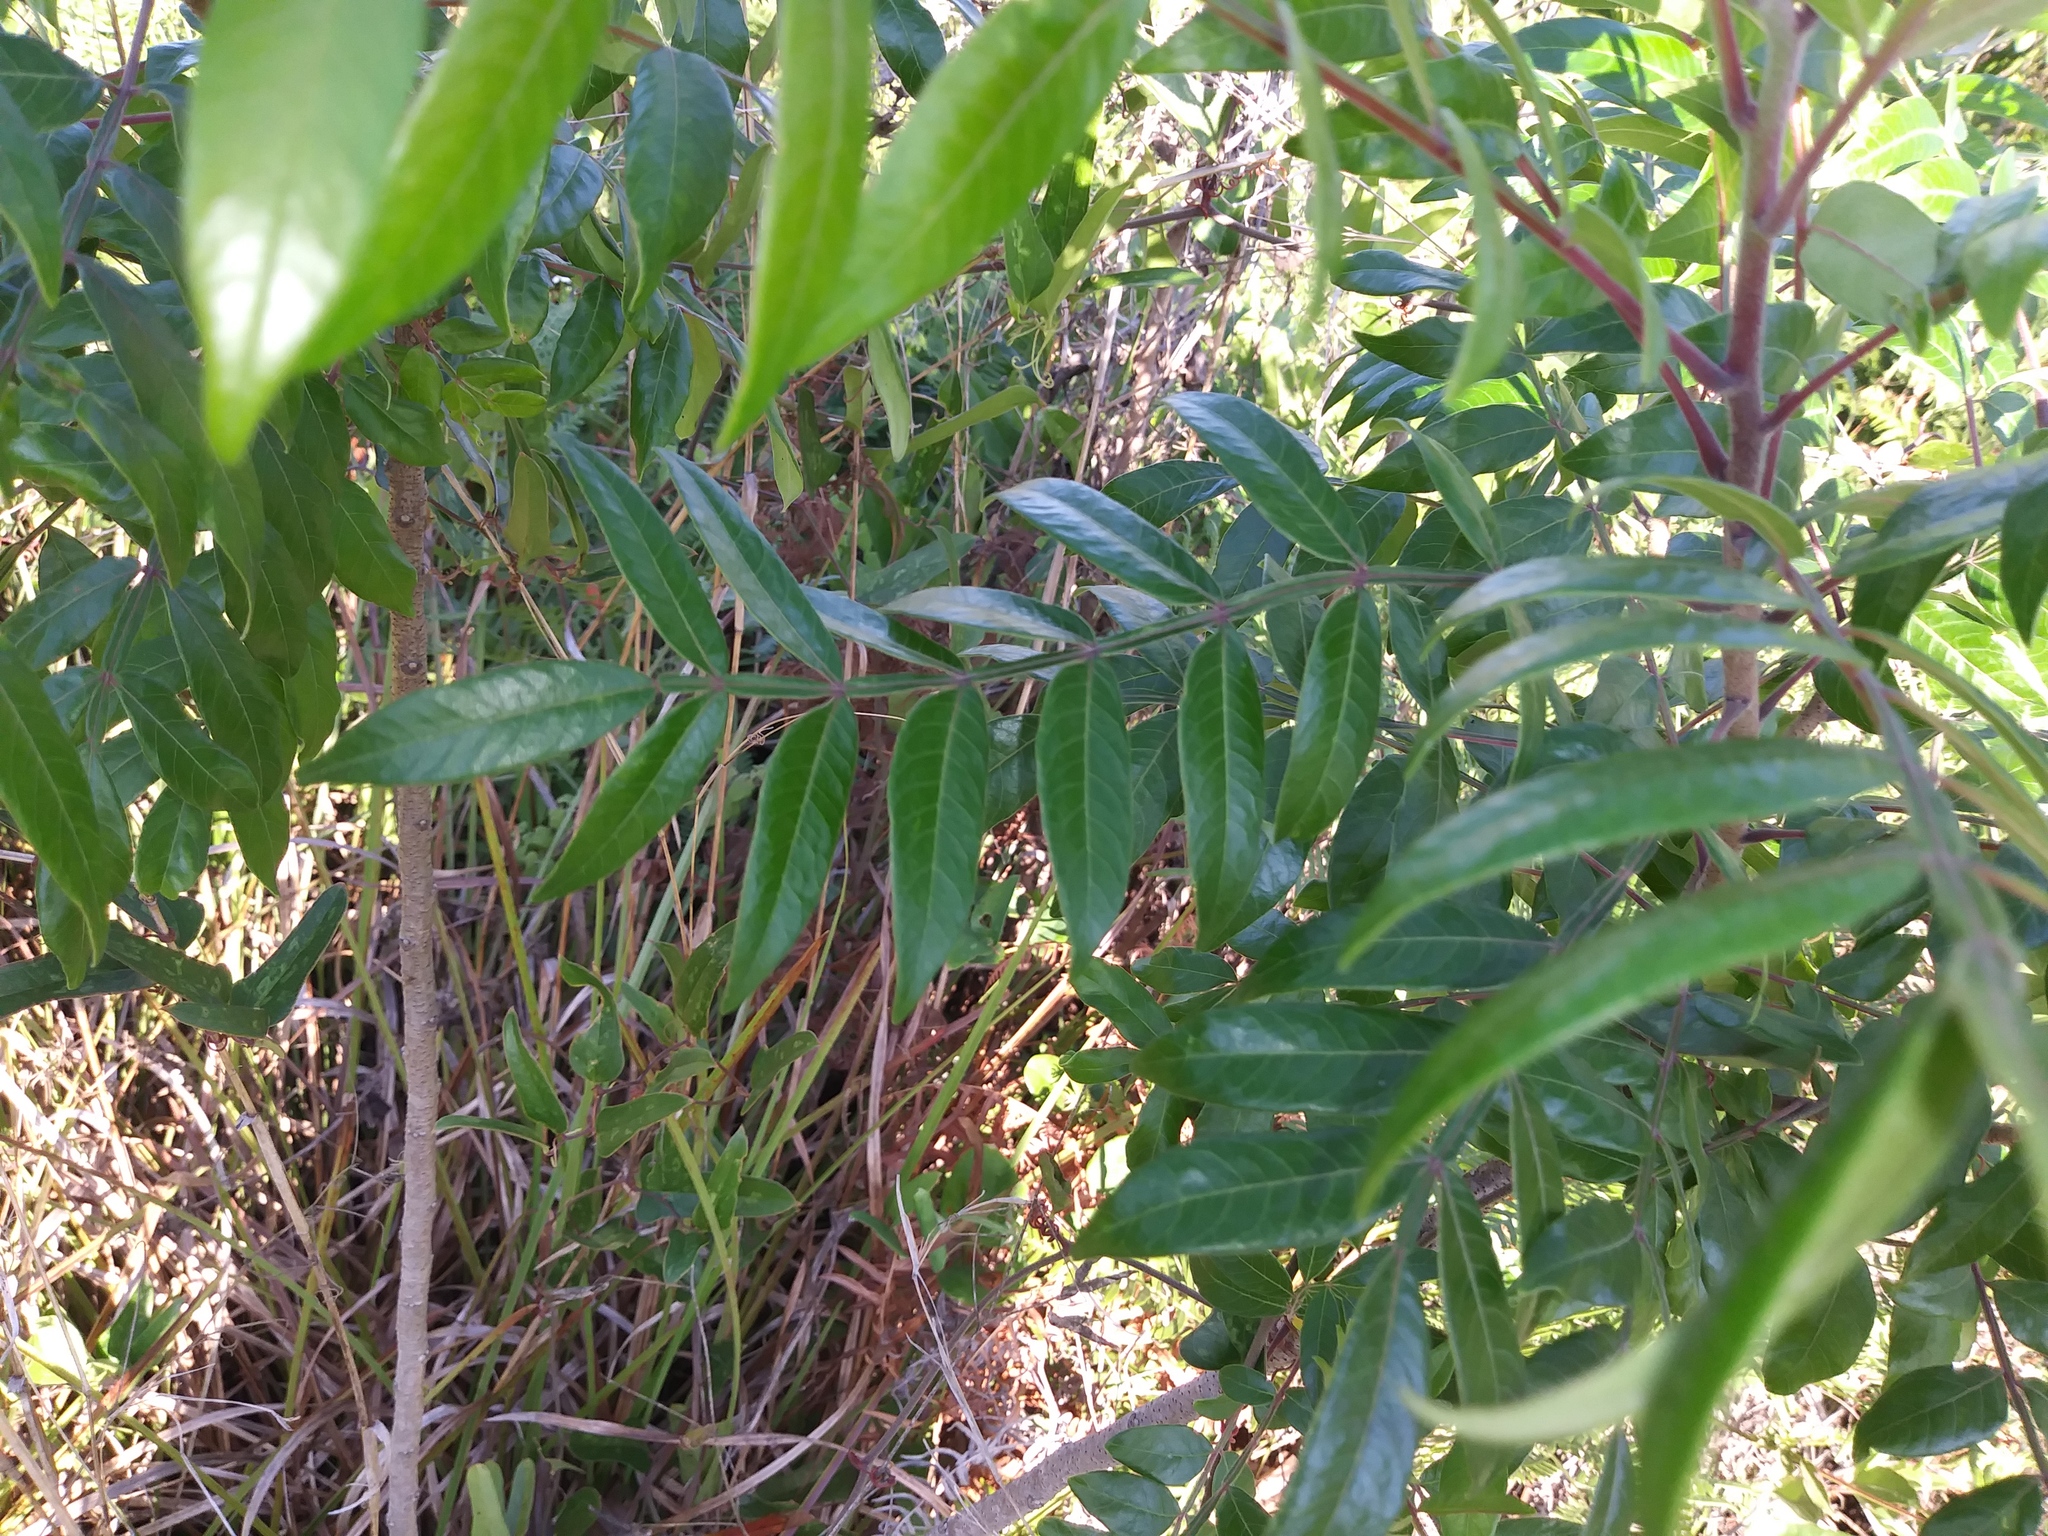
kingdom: Plantae
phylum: Tracheophyta
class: Magnoliopsida
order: Sapindales
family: Anacardiaceae
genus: Rhus
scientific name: Rhus copallina
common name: Shining sumac
